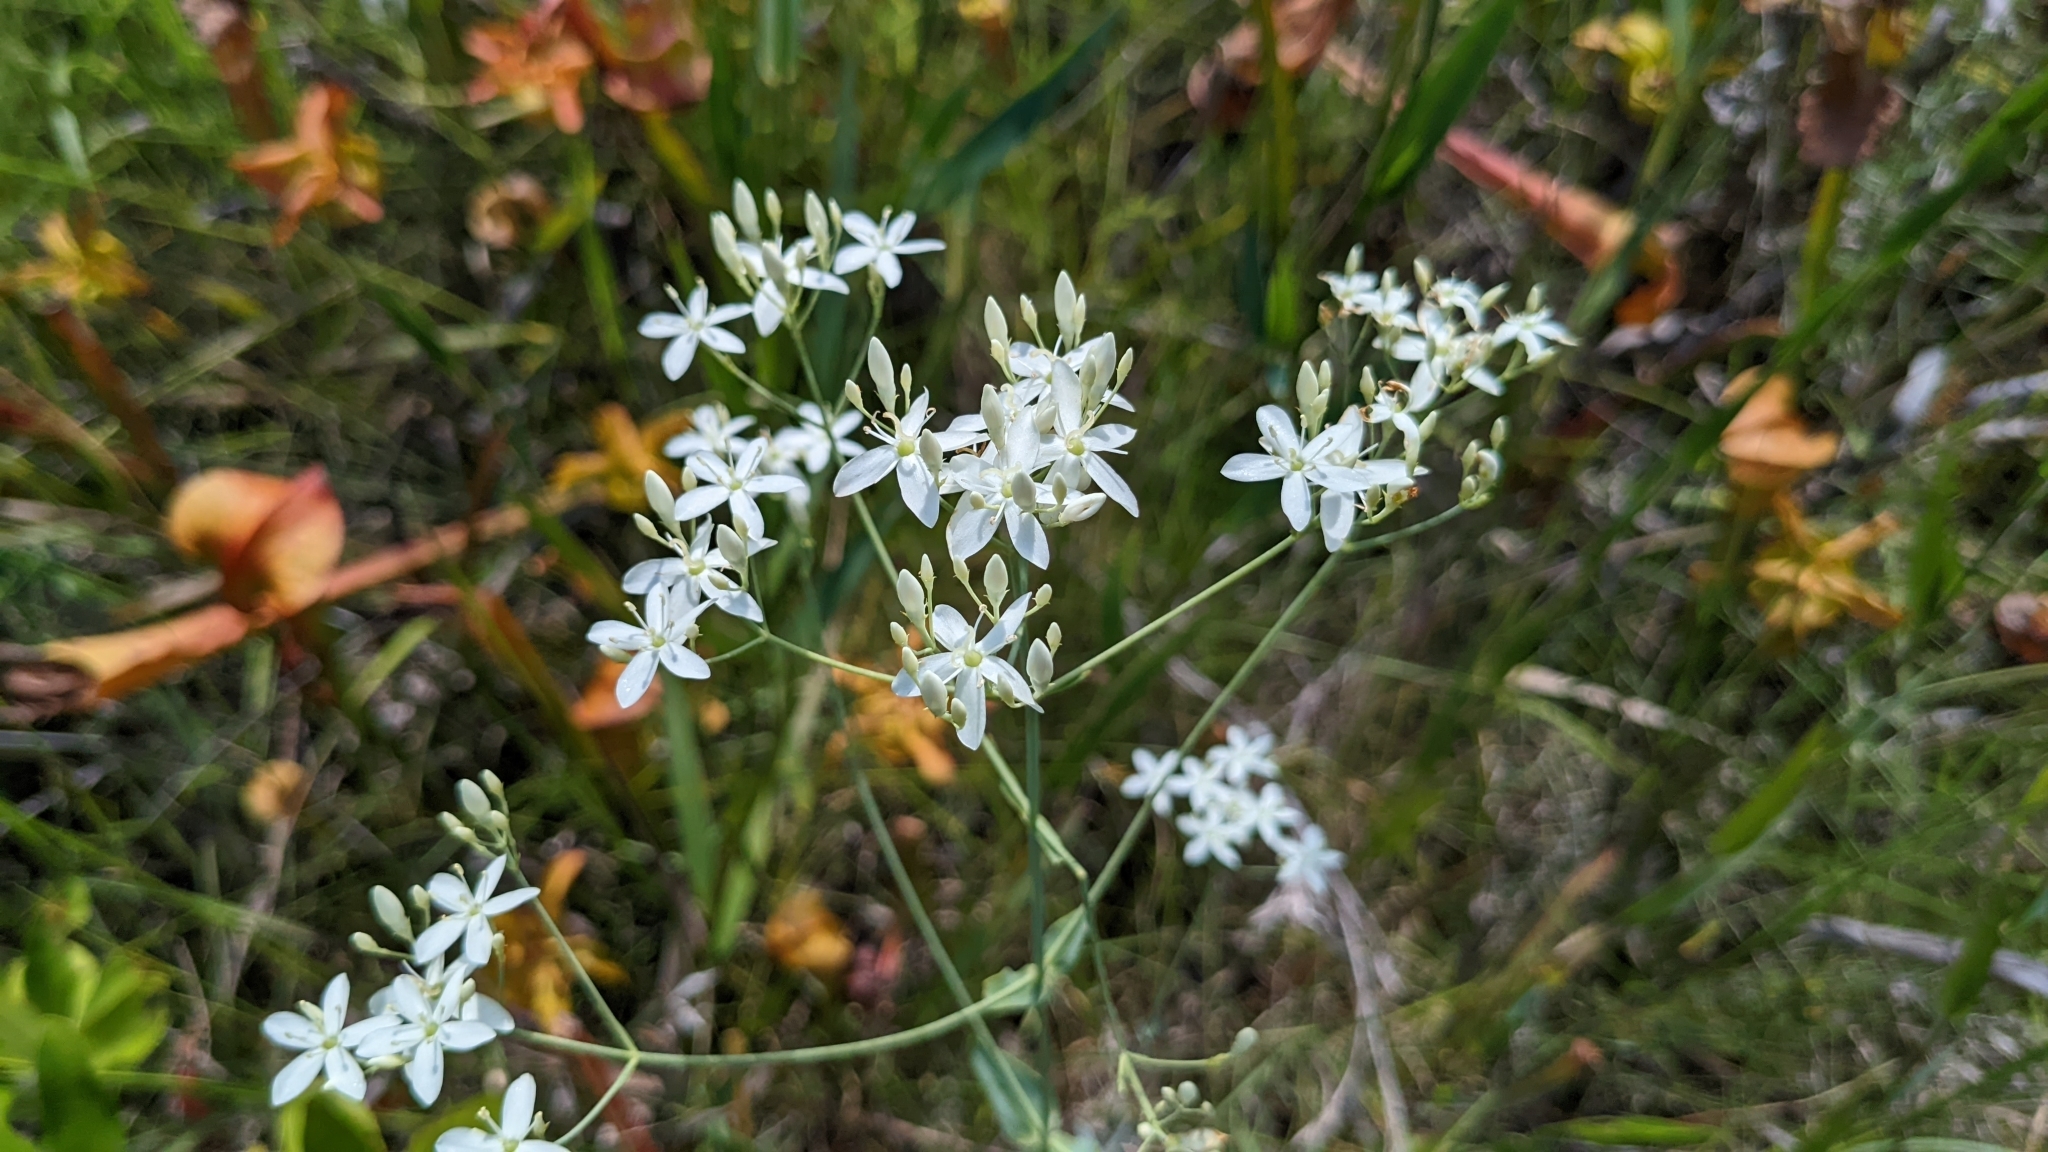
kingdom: Plantae
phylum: Tracheophyta
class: Magnoliopsida
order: Gentianales
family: Gentianaceae
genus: Sabatia
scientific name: Sabatia macrophylla
